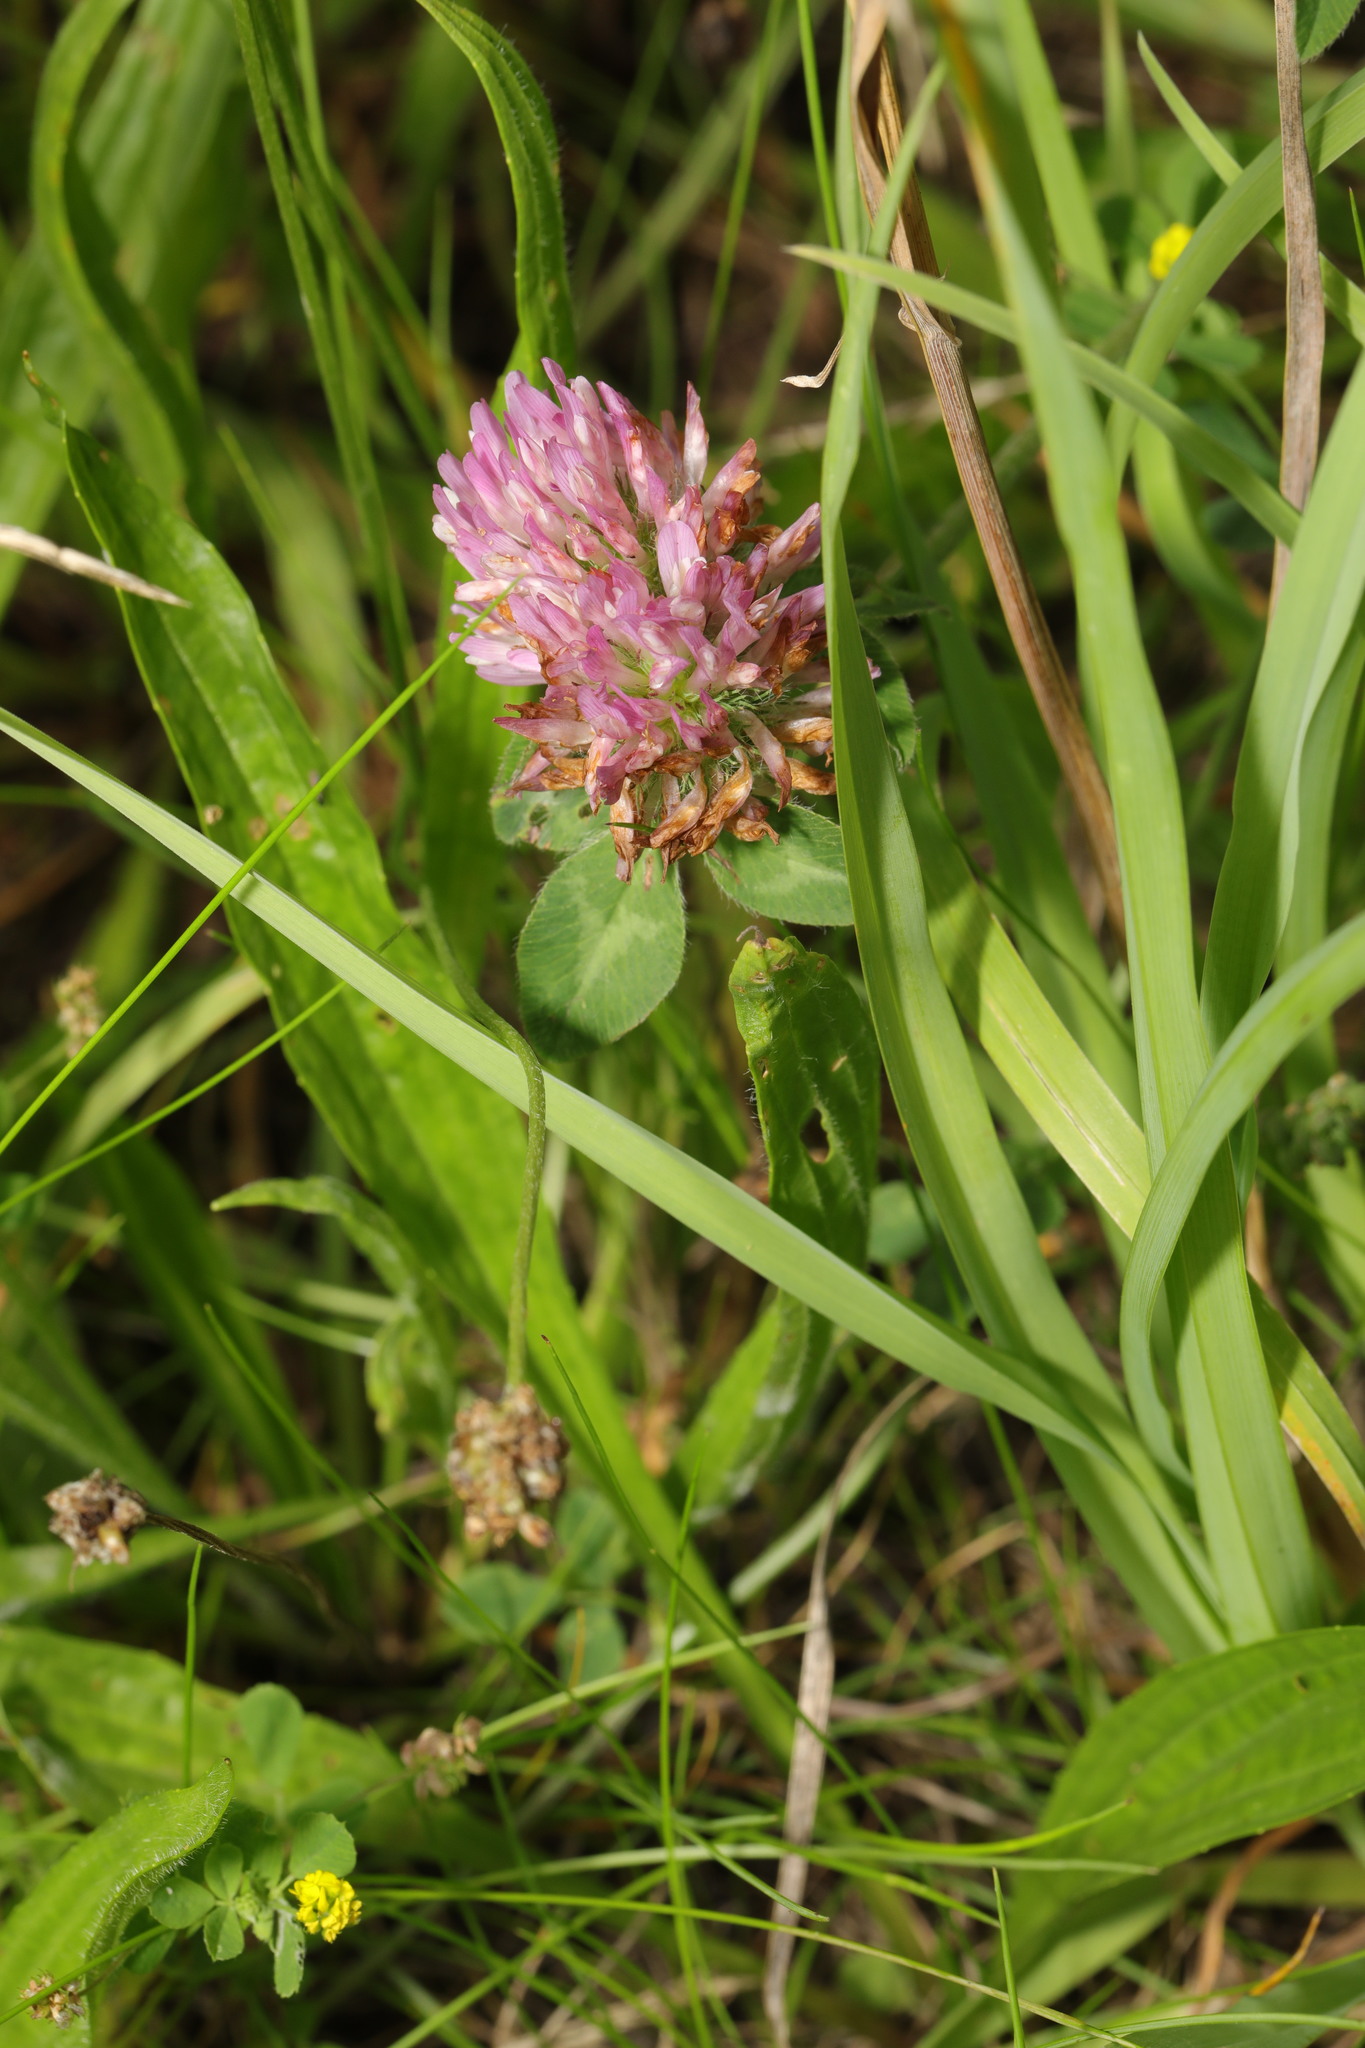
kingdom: Plantae
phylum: Tracheophyta
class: Magnoliopsida
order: Fabales
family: Fabaceae
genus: Trifolium
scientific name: Trifolium pratense
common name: Red clover
